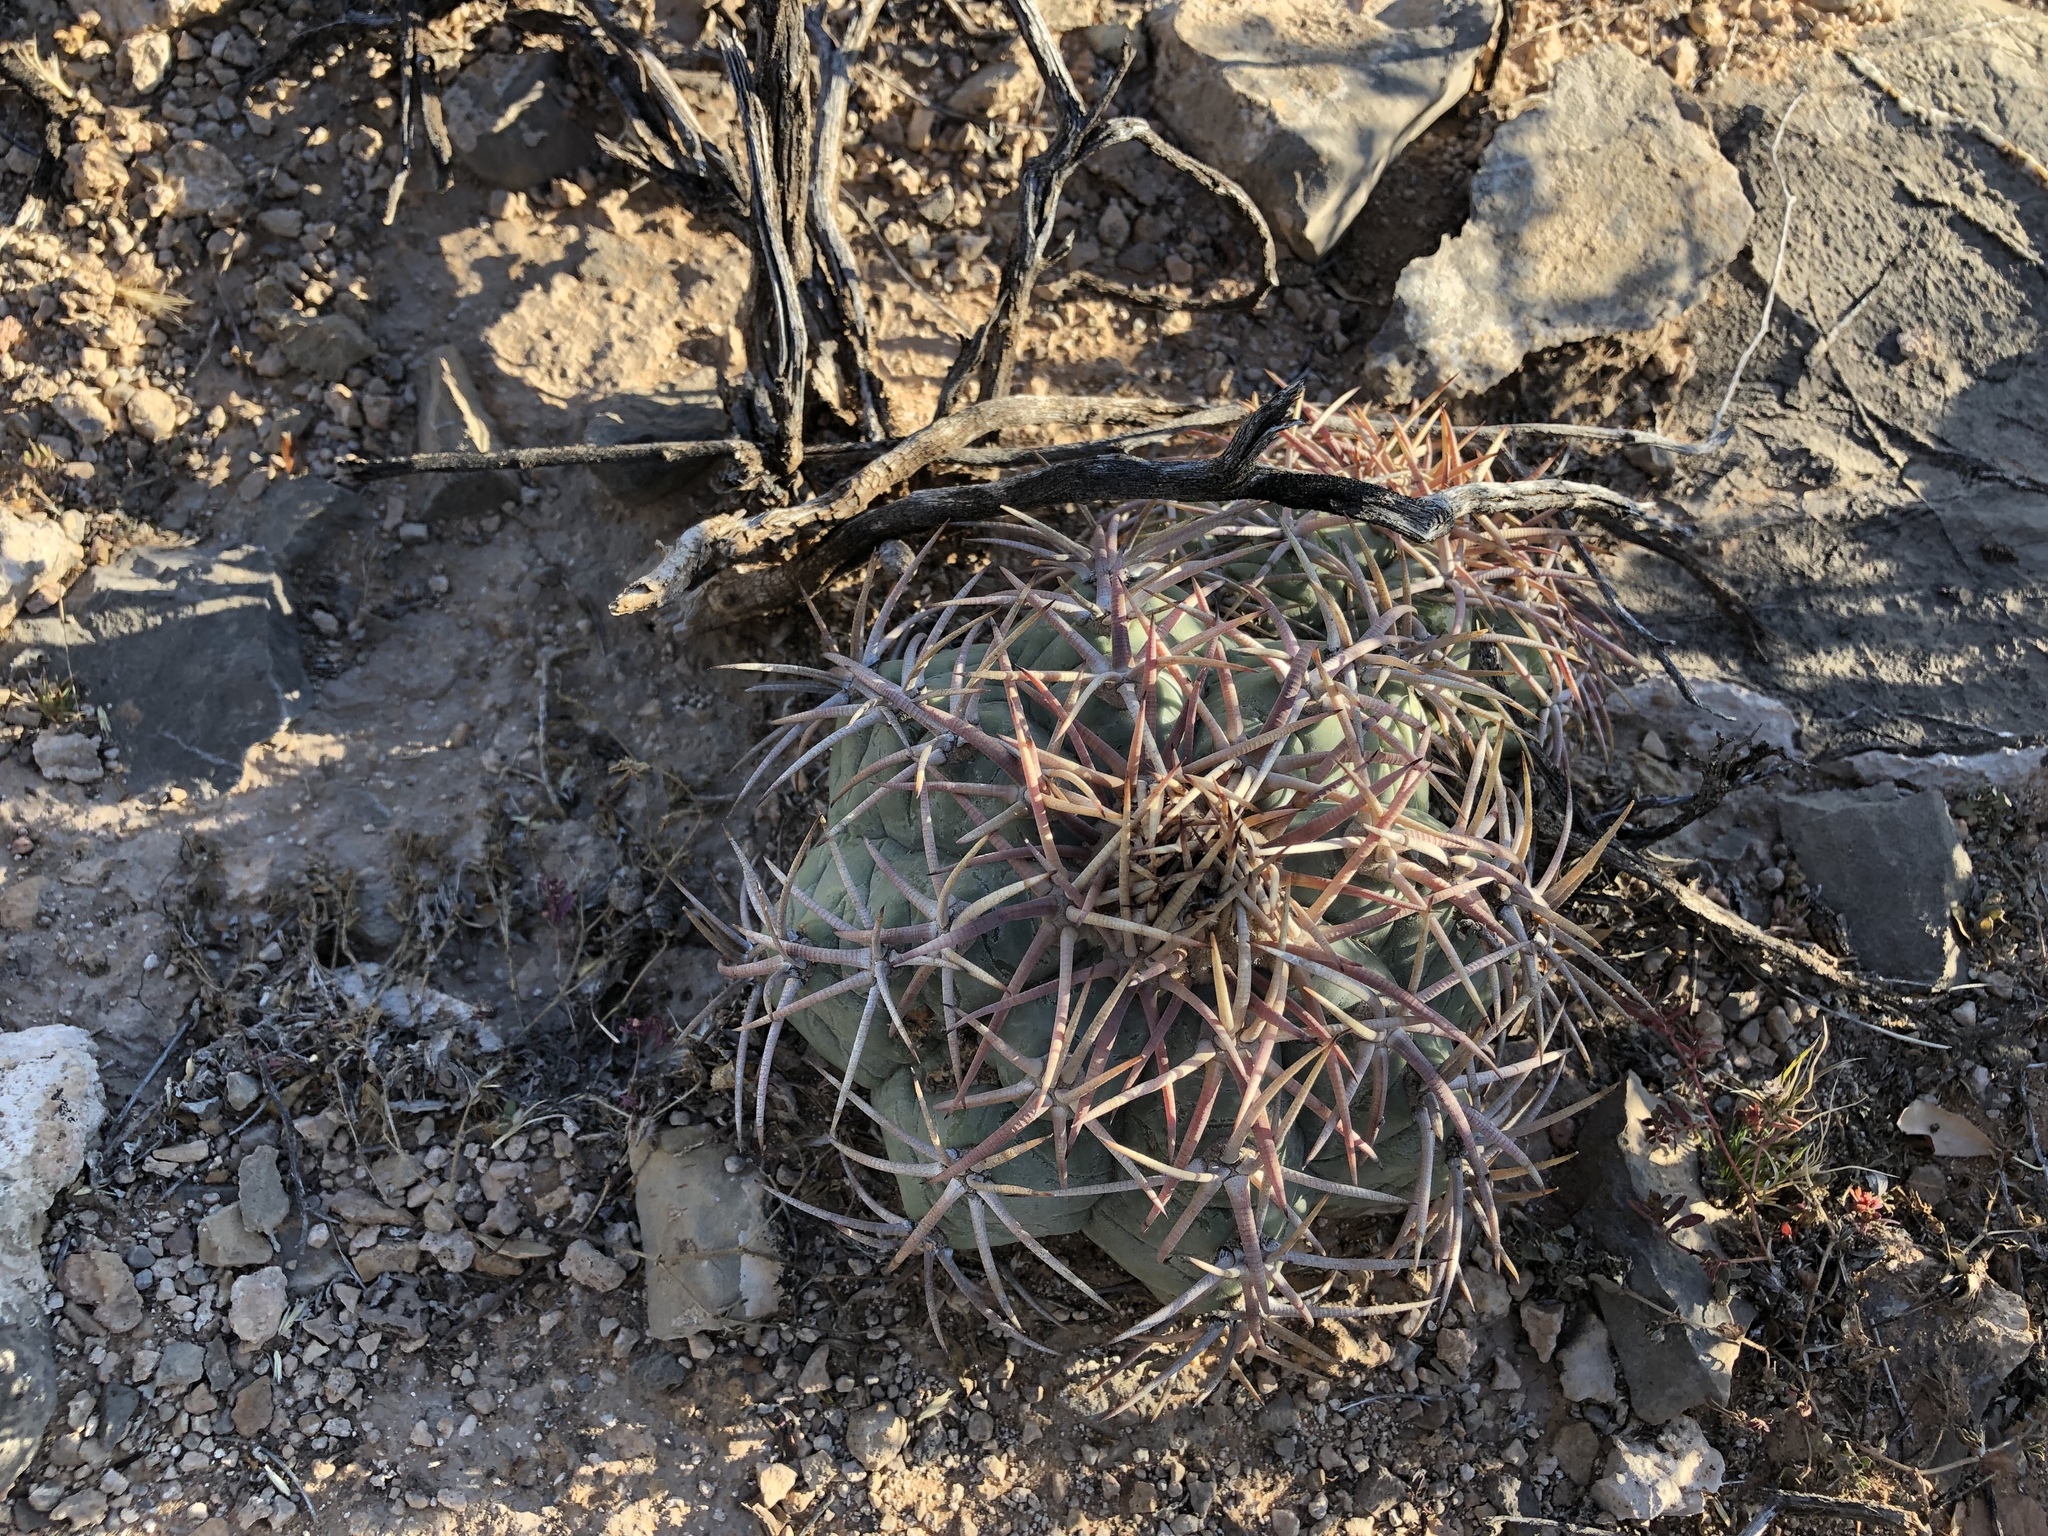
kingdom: Plantae
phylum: Tracheophyta
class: Magnoliopsida
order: Caryophyllales
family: Cactaceae
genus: Echinocactus
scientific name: Echinocactus horizonthalonius
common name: Devilshead
